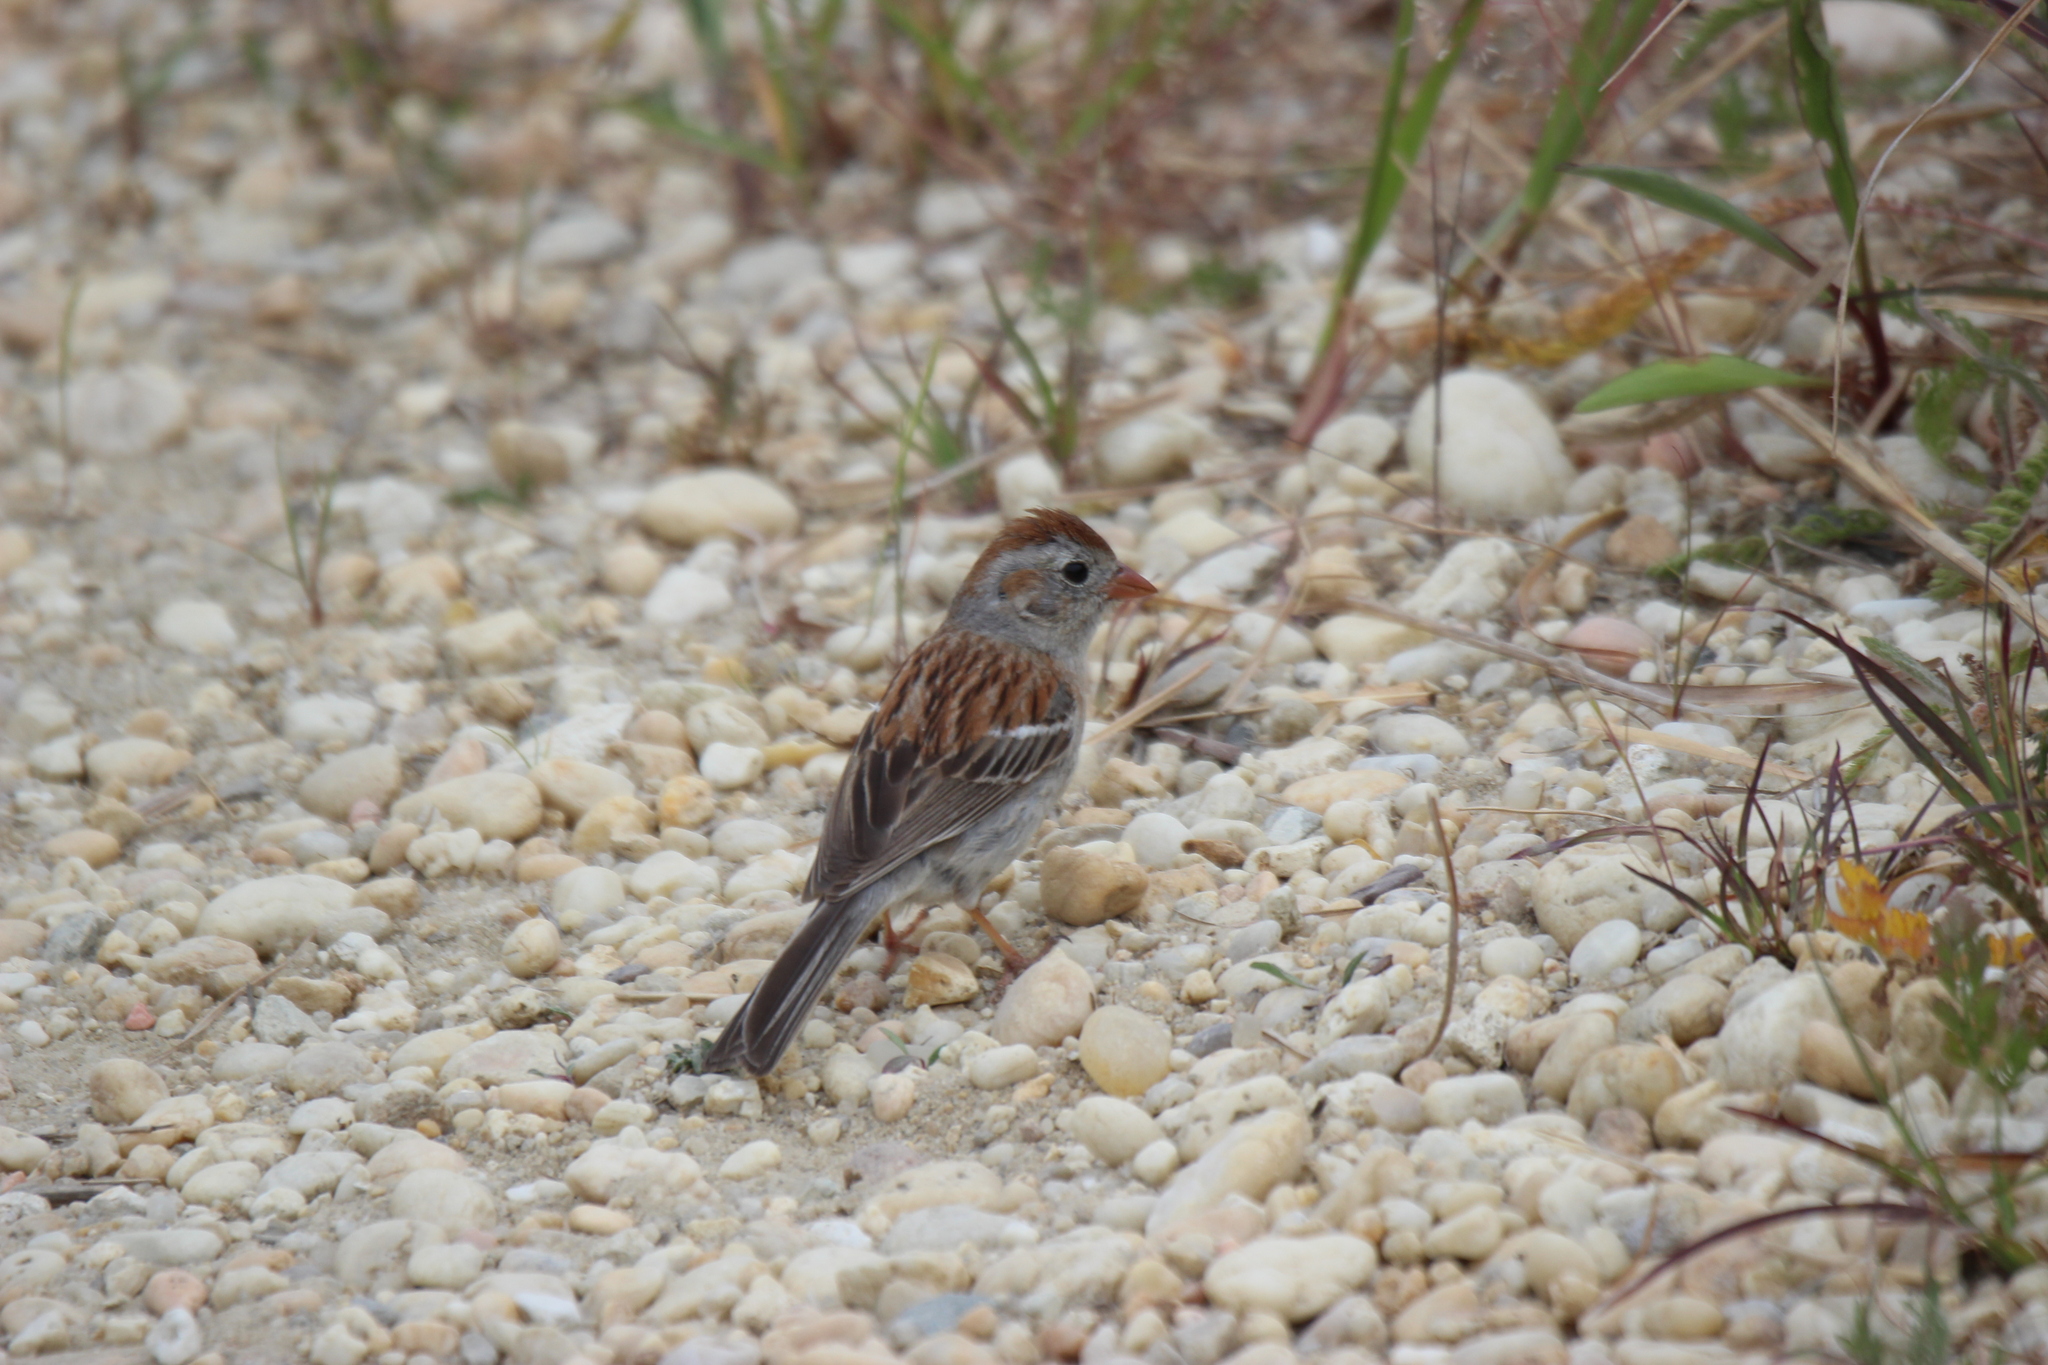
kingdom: Animalia
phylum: Chordata
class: Aves
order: Passeriformes
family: Passerellidae
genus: Spizella
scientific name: Spizella pusilla
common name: Field sparrow
